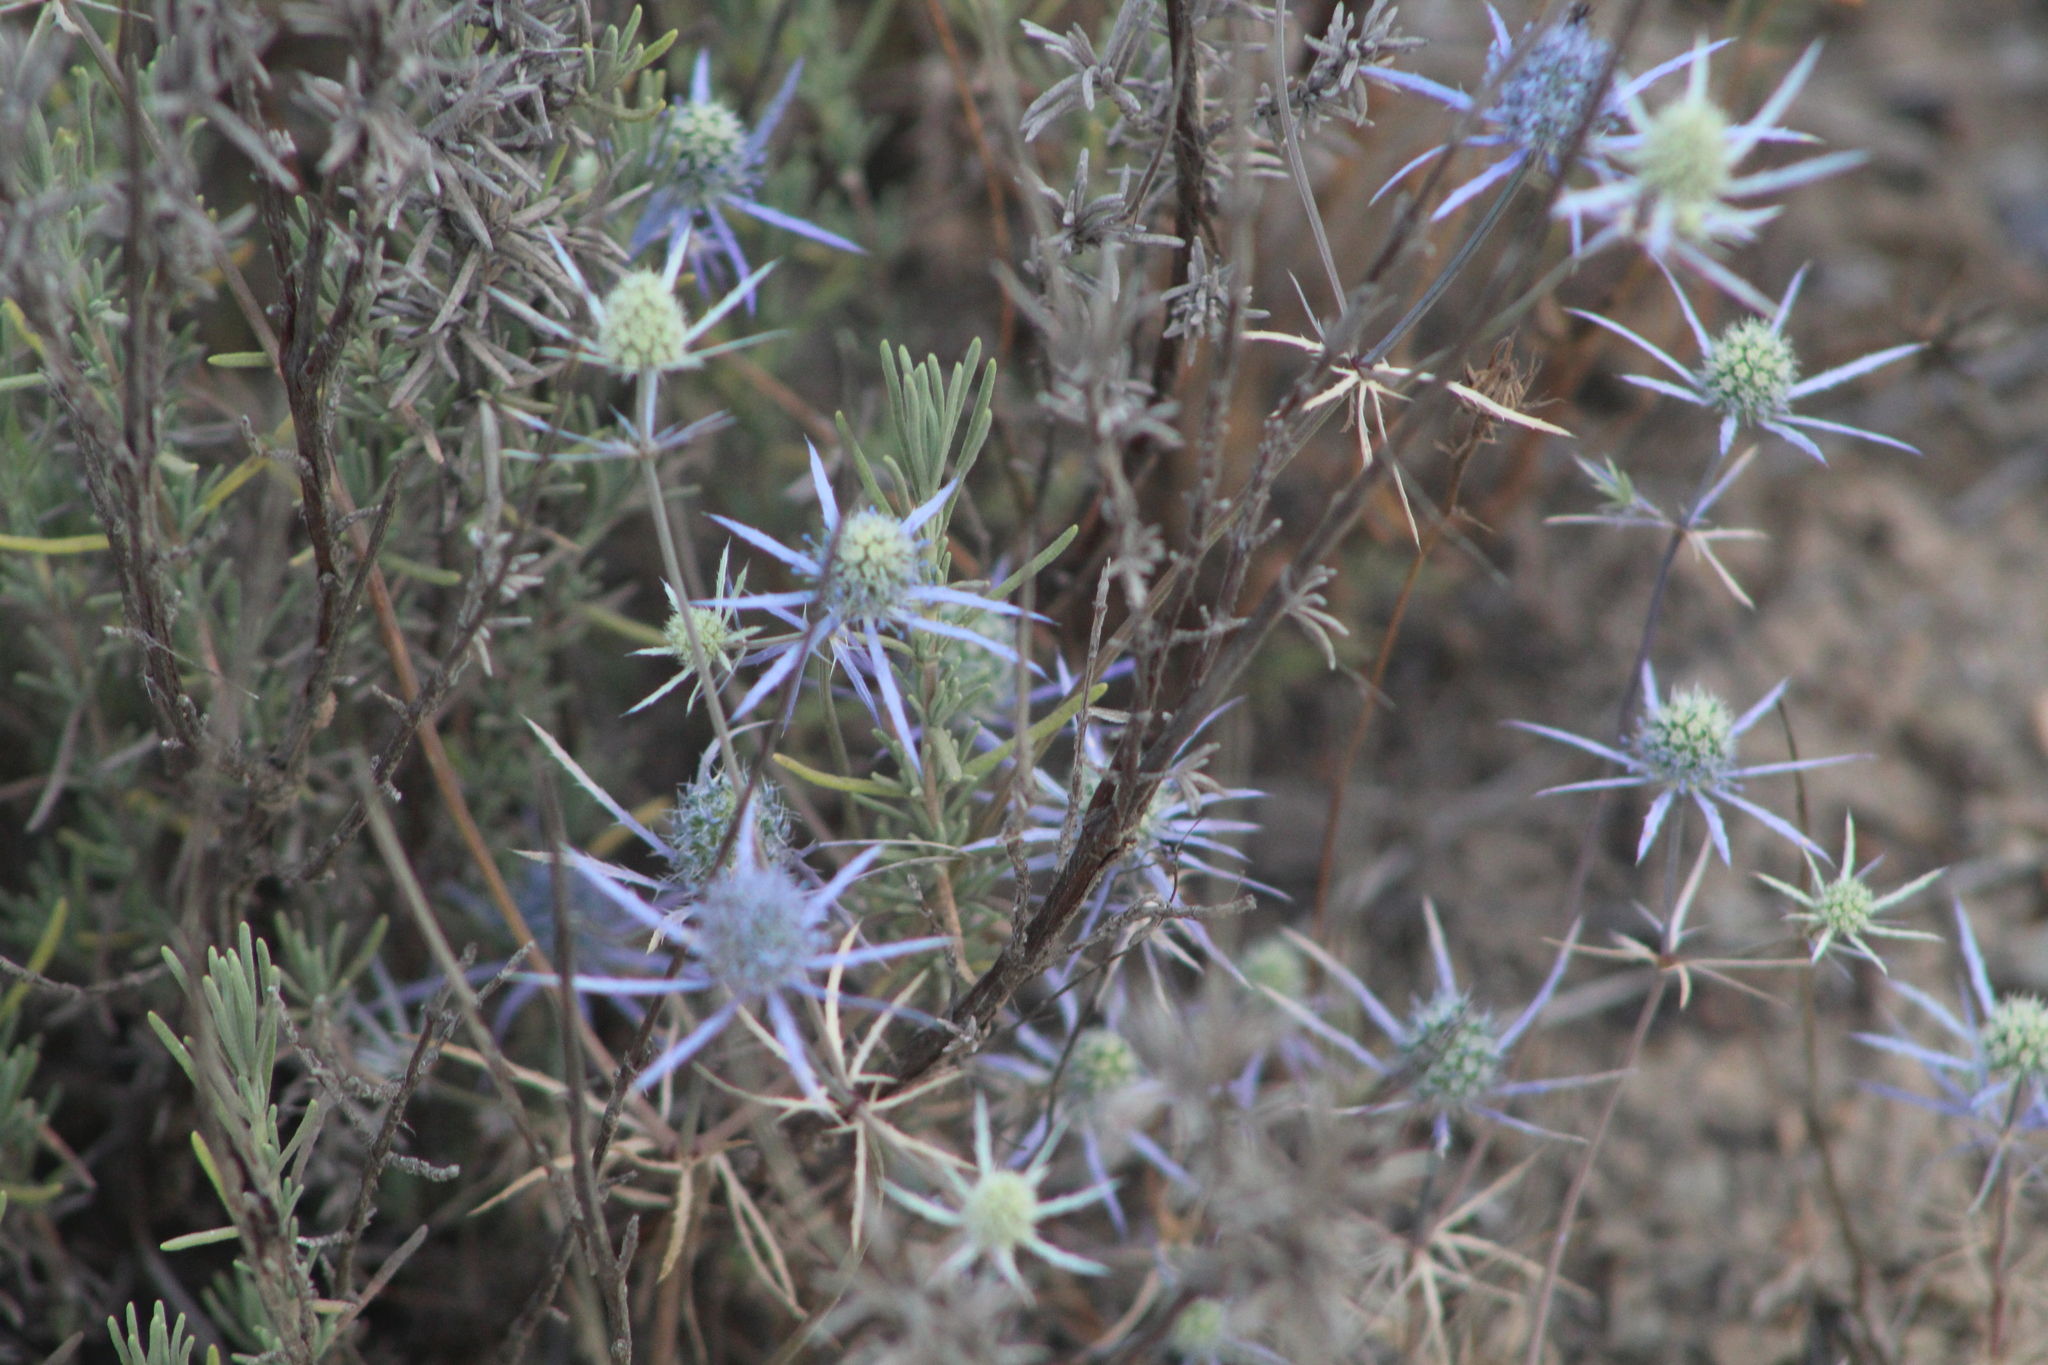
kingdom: Plantae
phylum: Tracheophyta
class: Magnoliopsida
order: Apiales
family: Apiaceae
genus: Eryngium
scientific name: Eryngium tenue
